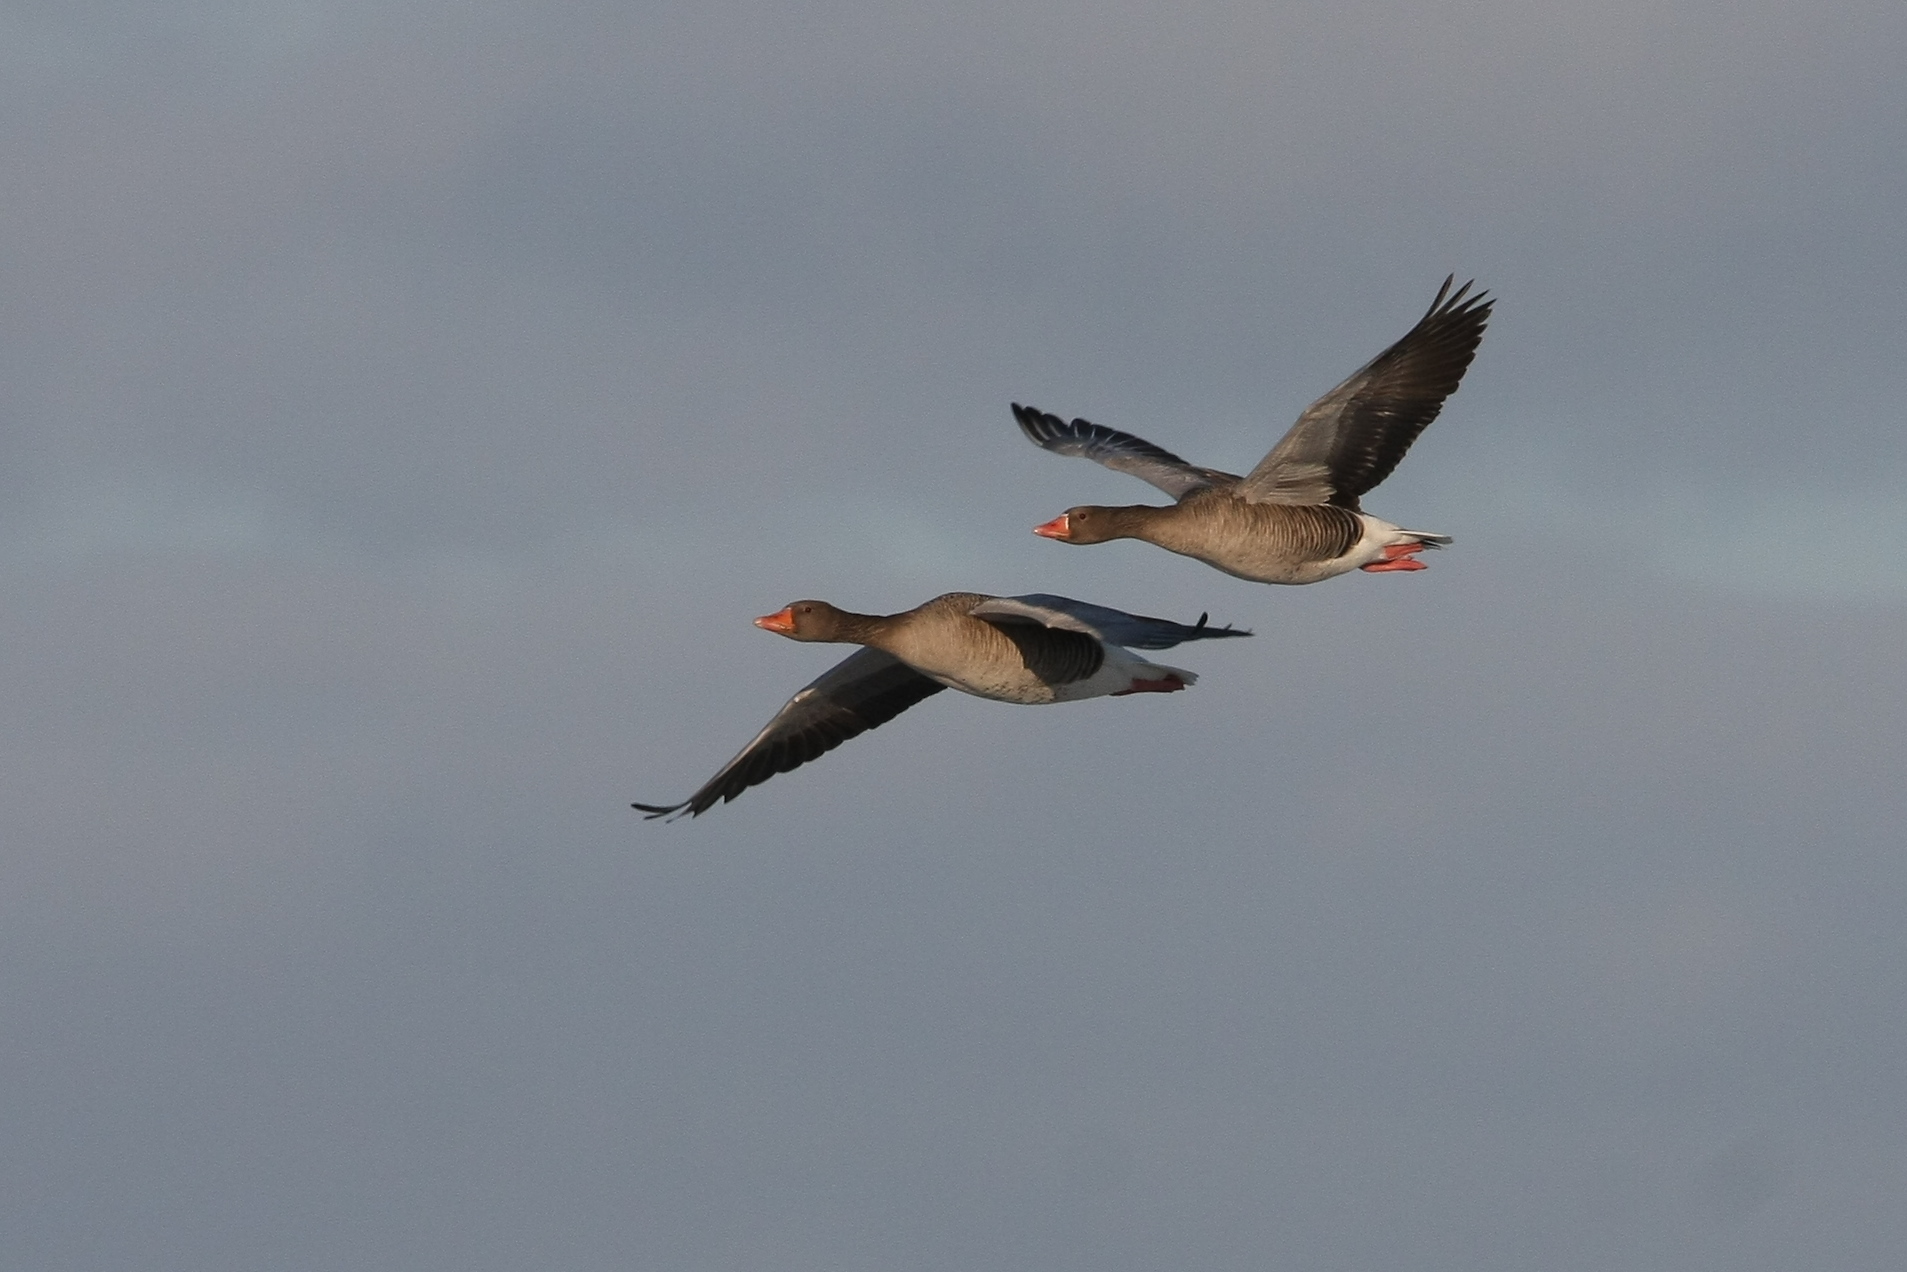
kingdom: Animalia
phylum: Chordata
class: Aves
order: Anseriformes
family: Anatidae
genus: Anser
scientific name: Anser anser
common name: Greylag goose
